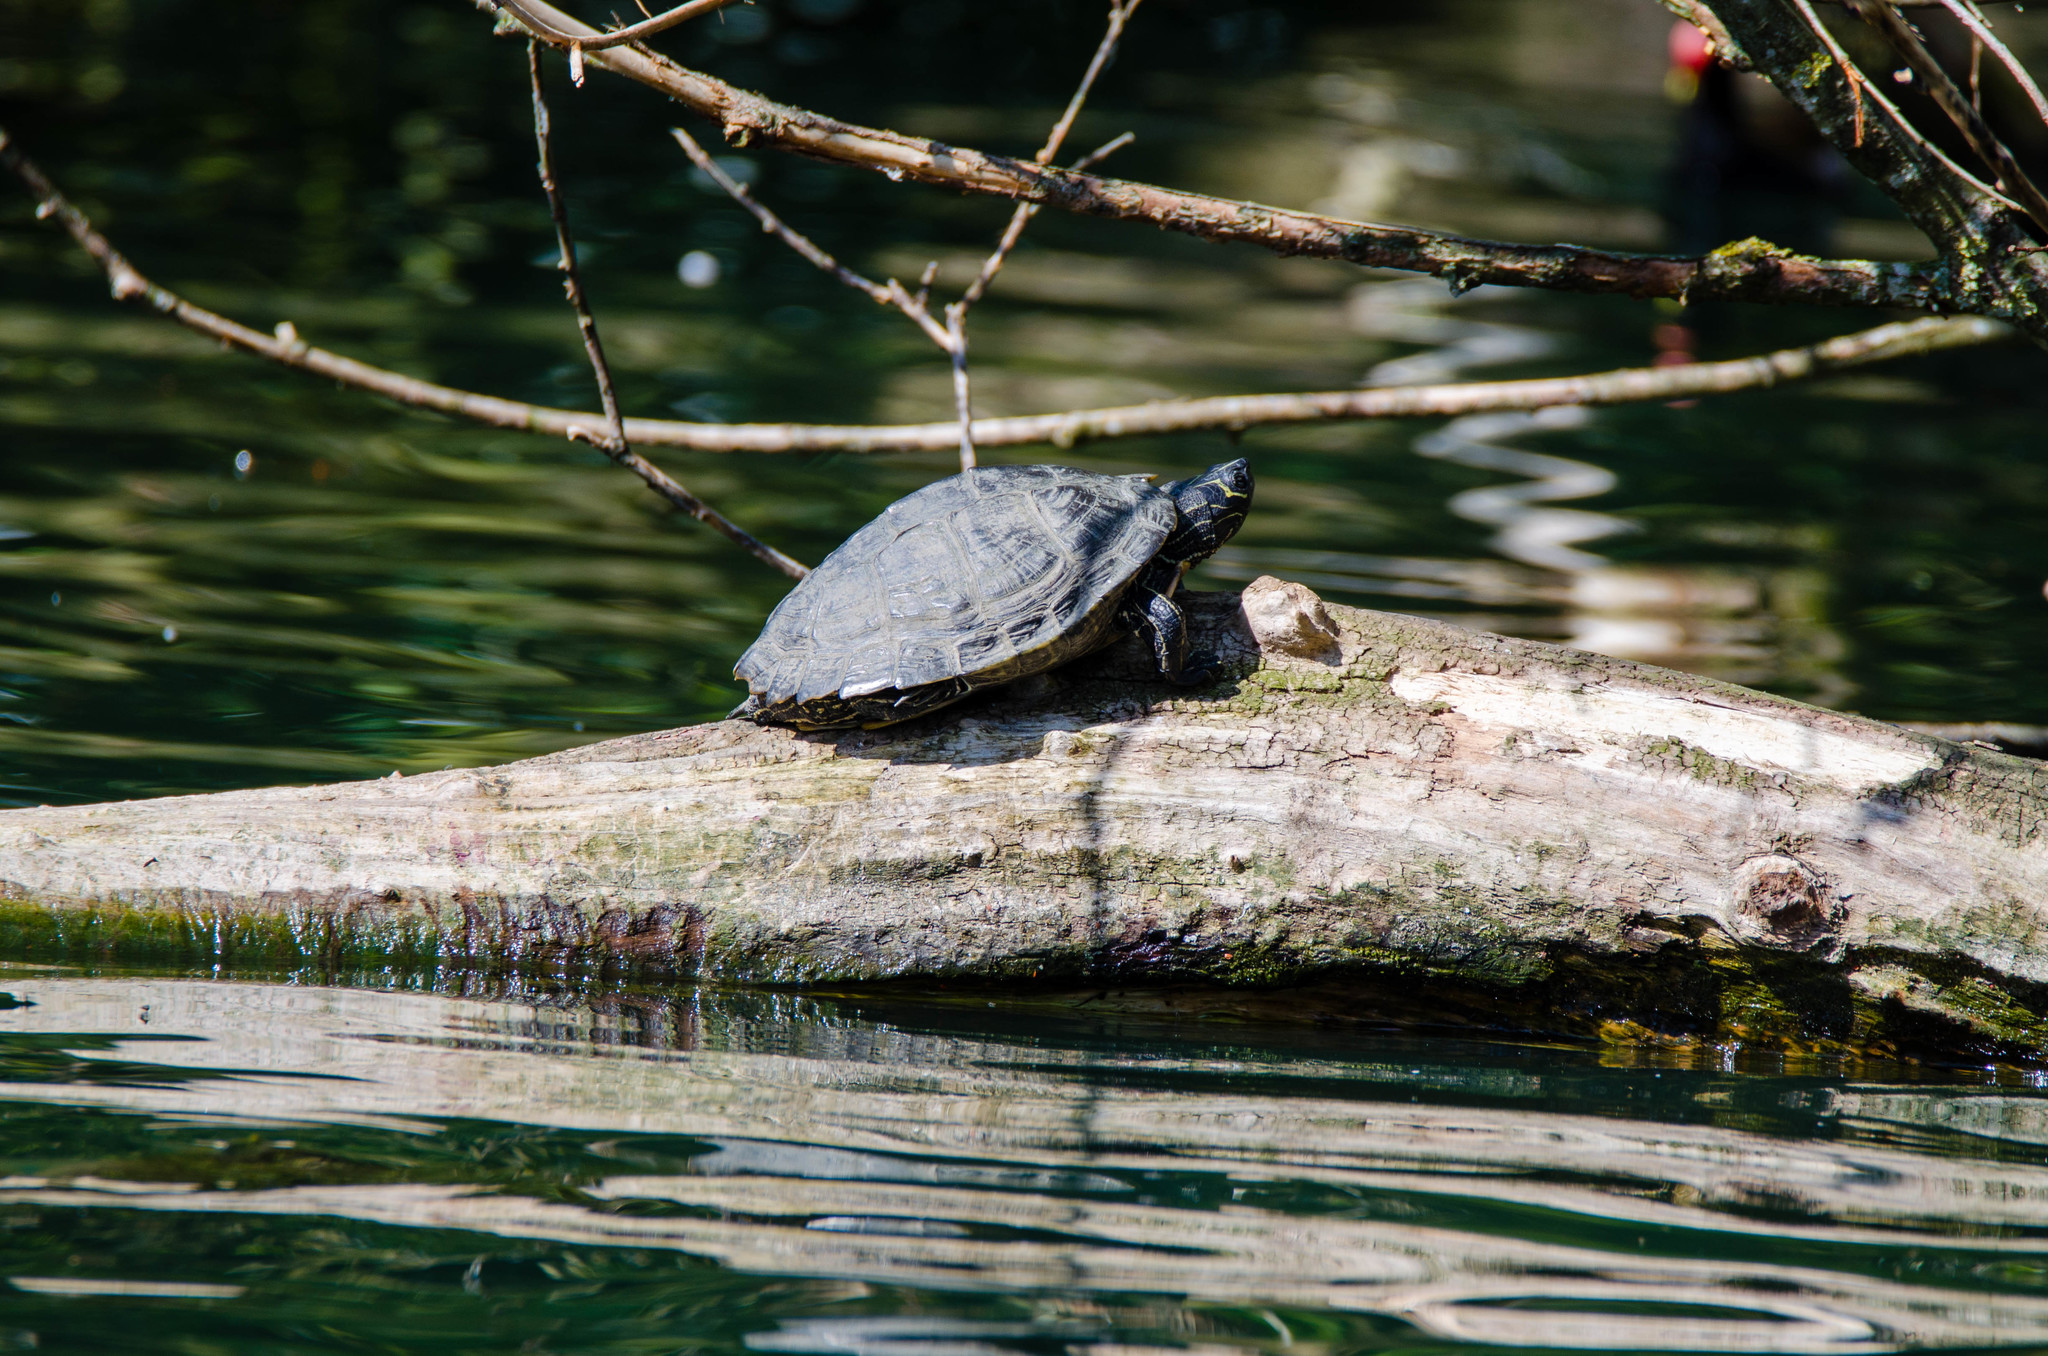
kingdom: Animalia
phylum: Chordata
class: Testudines
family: Emydidae
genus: Graptemys
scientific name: Graptemys pseudogeographica
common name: False map turtle
